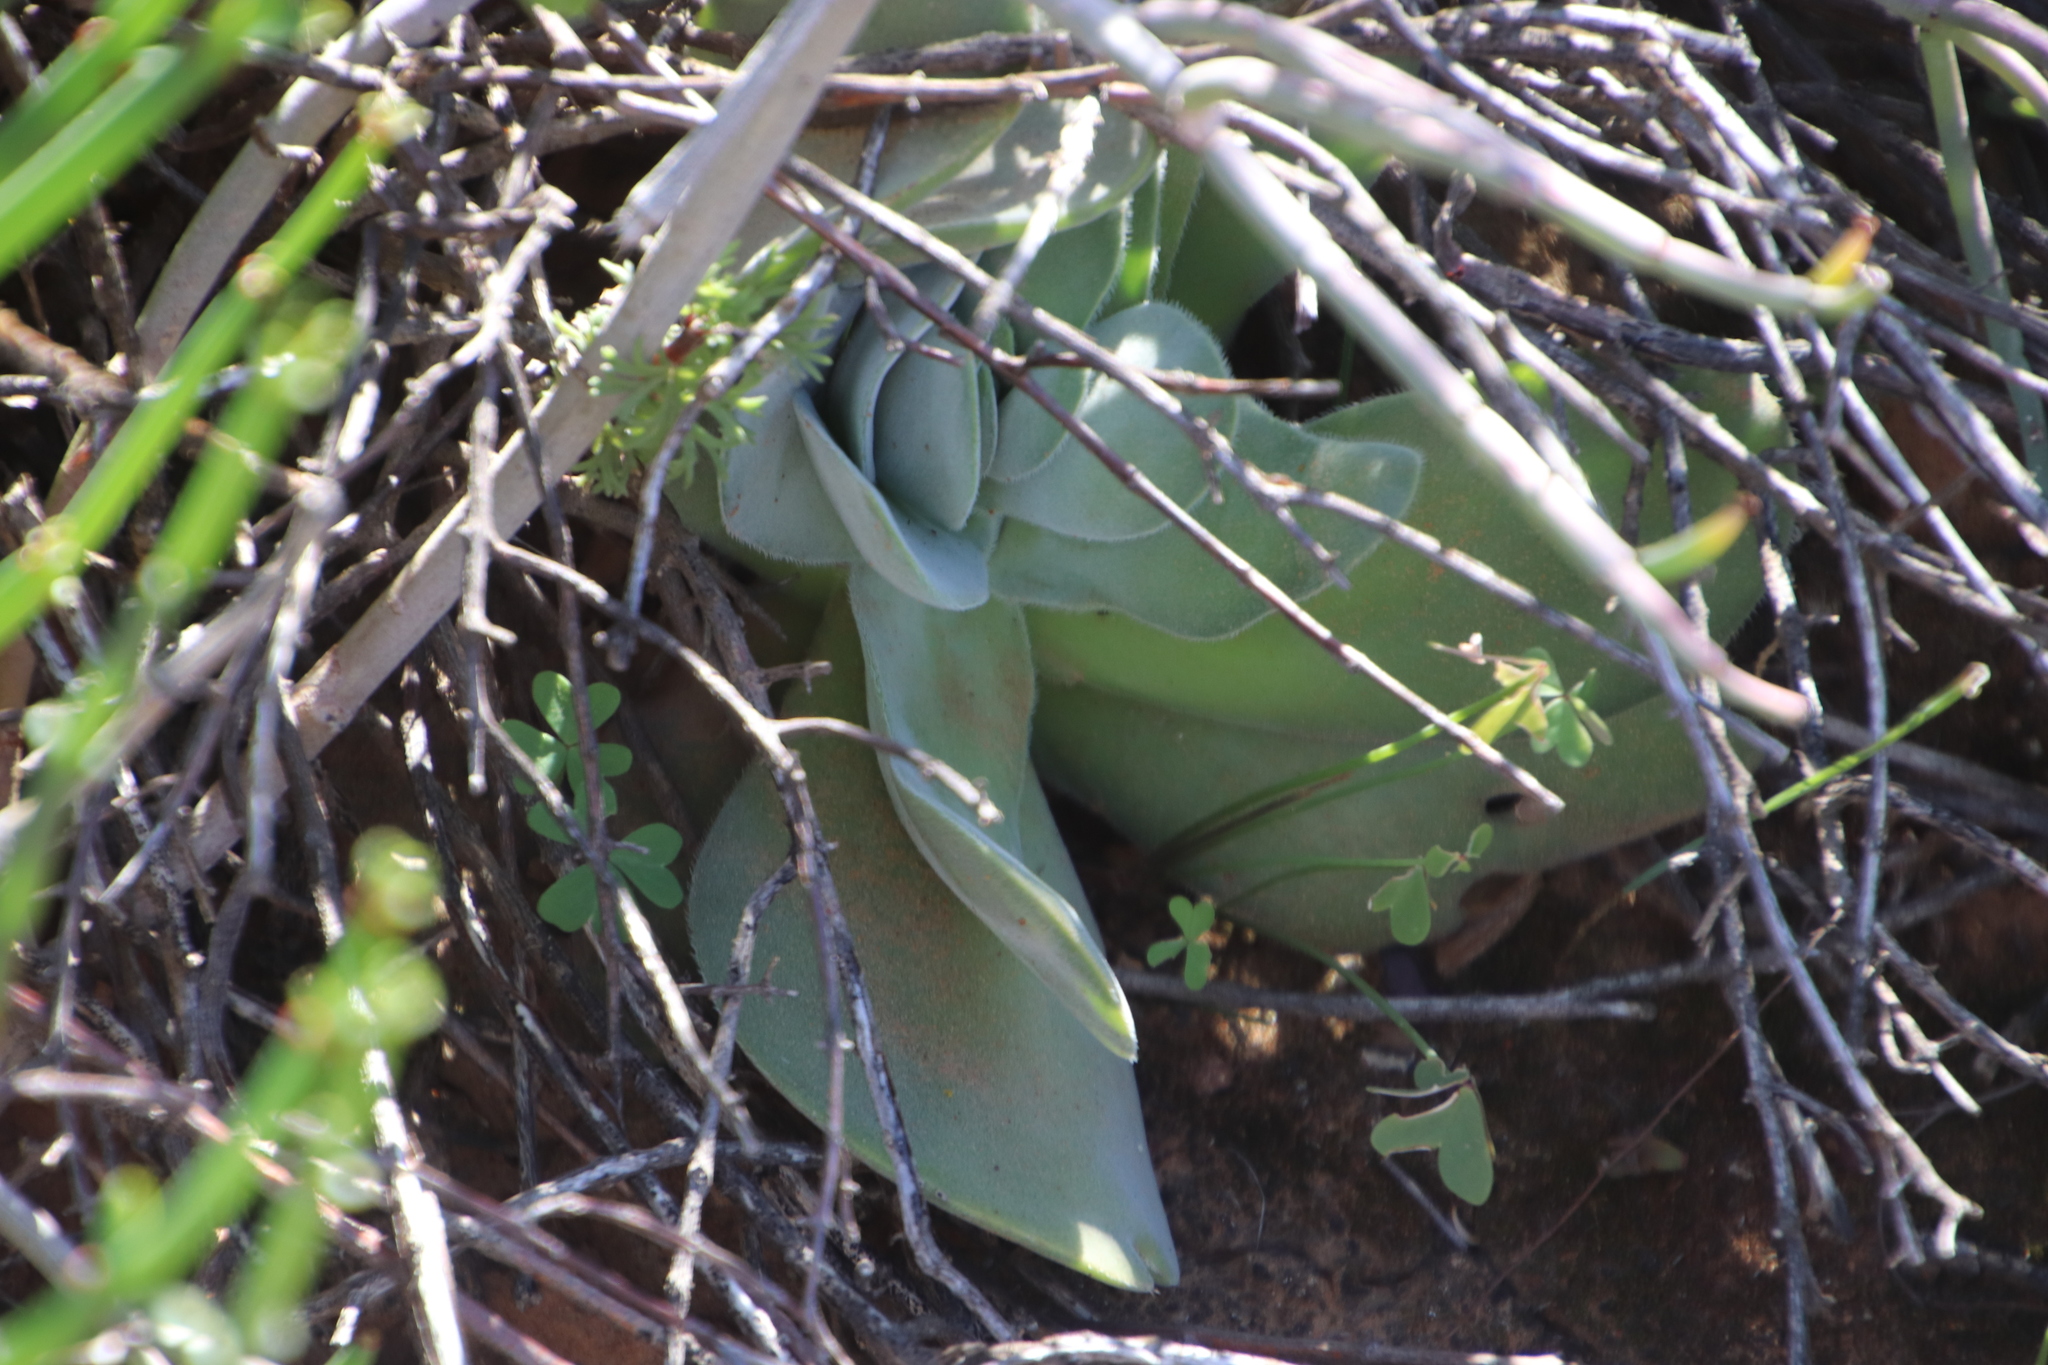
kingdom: Plantae
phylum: Tracheophyta
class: Magnoliopsida
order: Saxifragales
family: Crassulaceae
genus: Crassula
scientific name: Crassula cotyledonis
